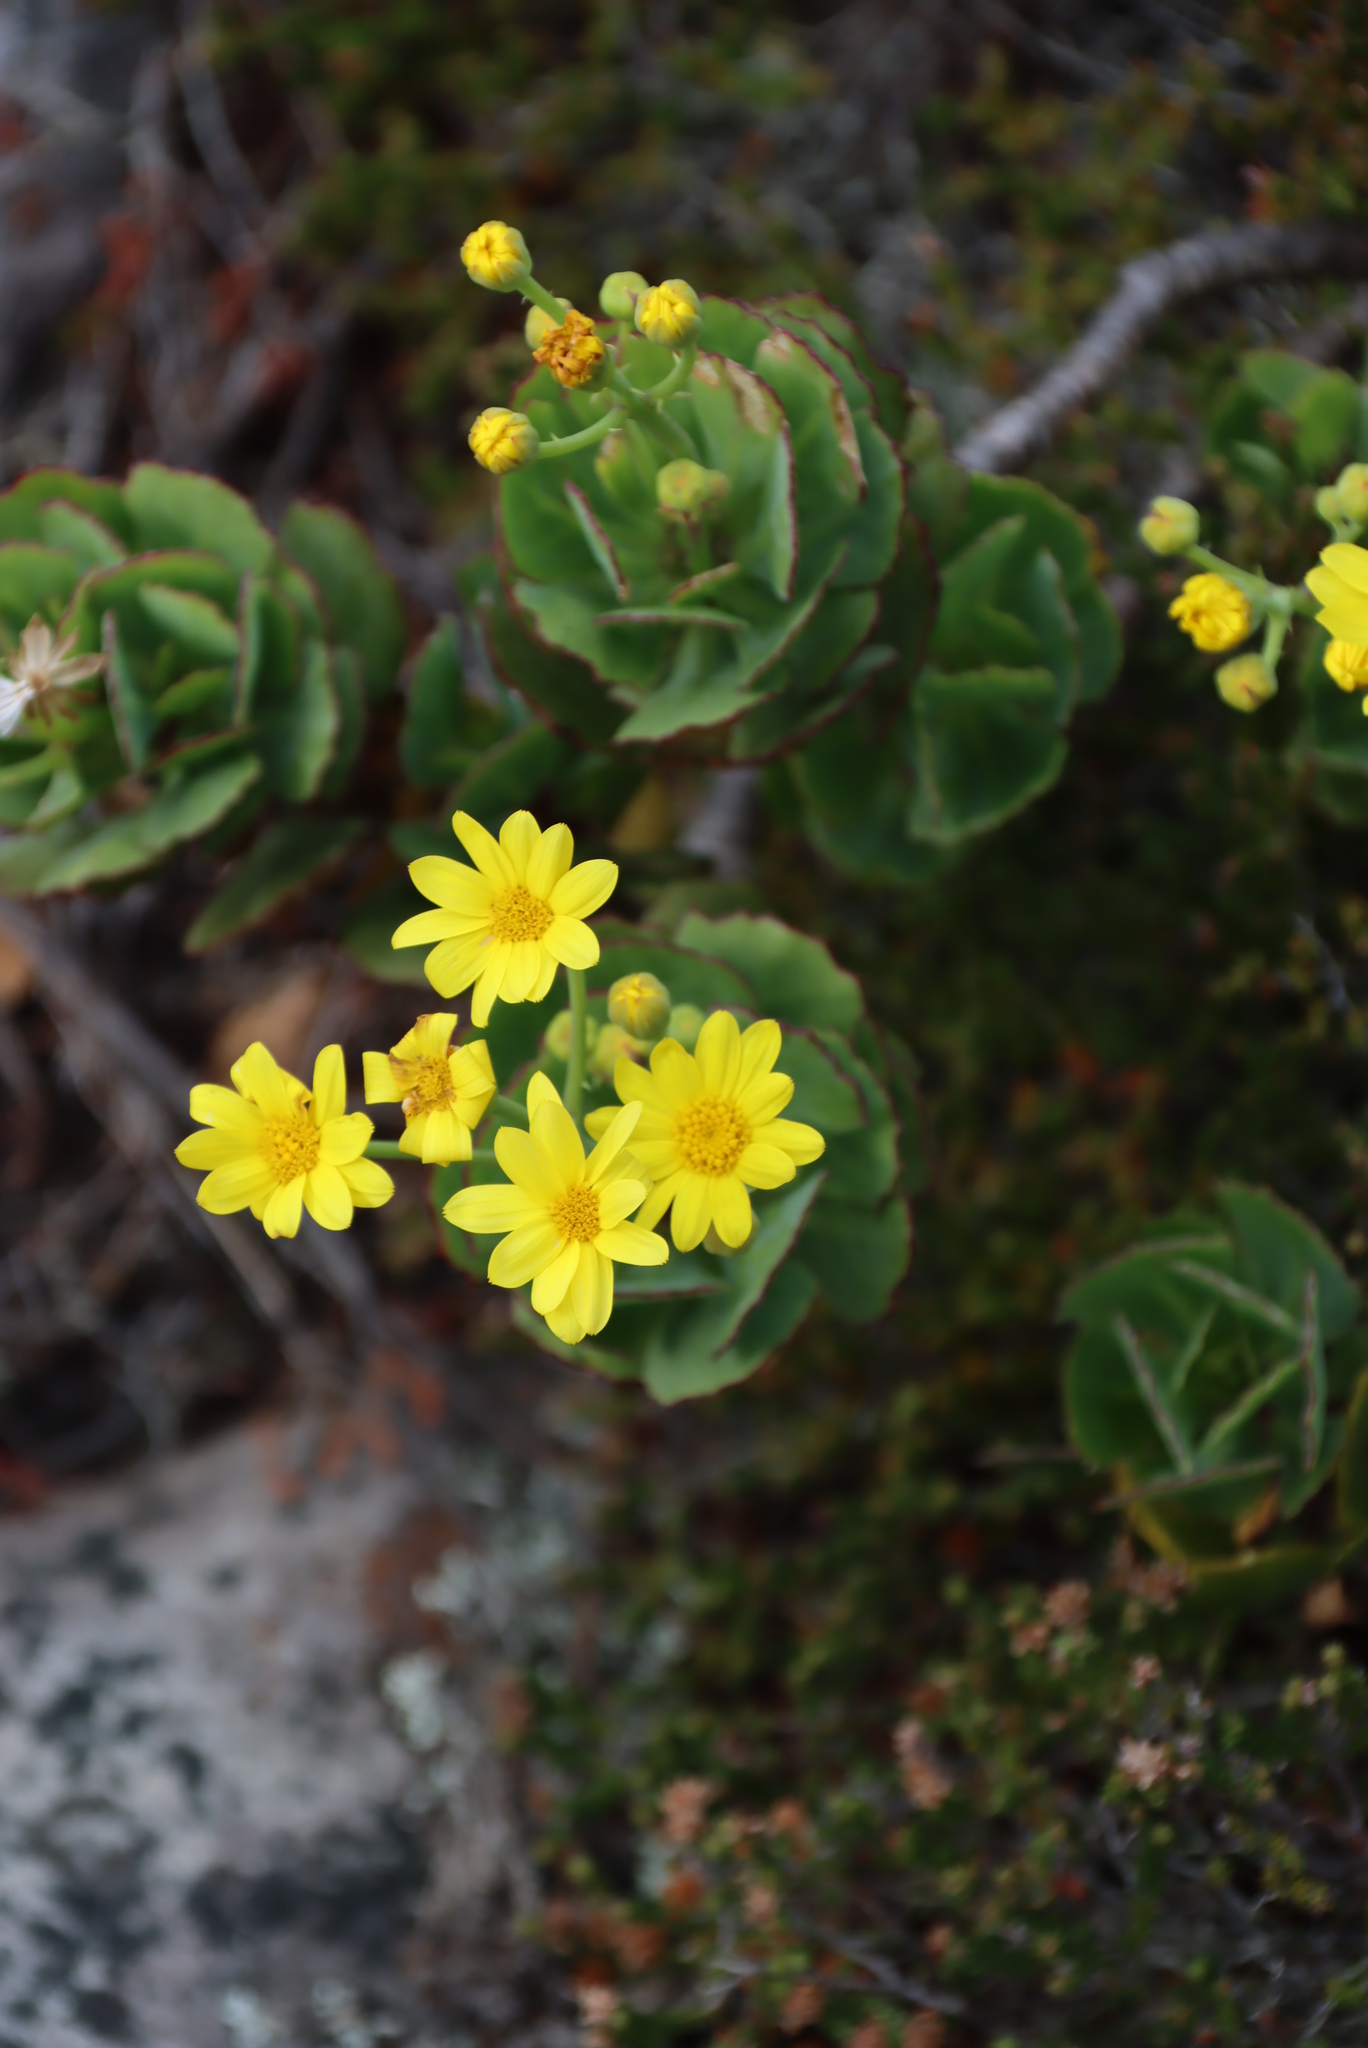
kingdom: Plantae
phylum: Tracheophyta
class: Magnoliopsida
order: Asterales
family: Asteraceae
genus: Othonna
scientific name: Othonna dentata
